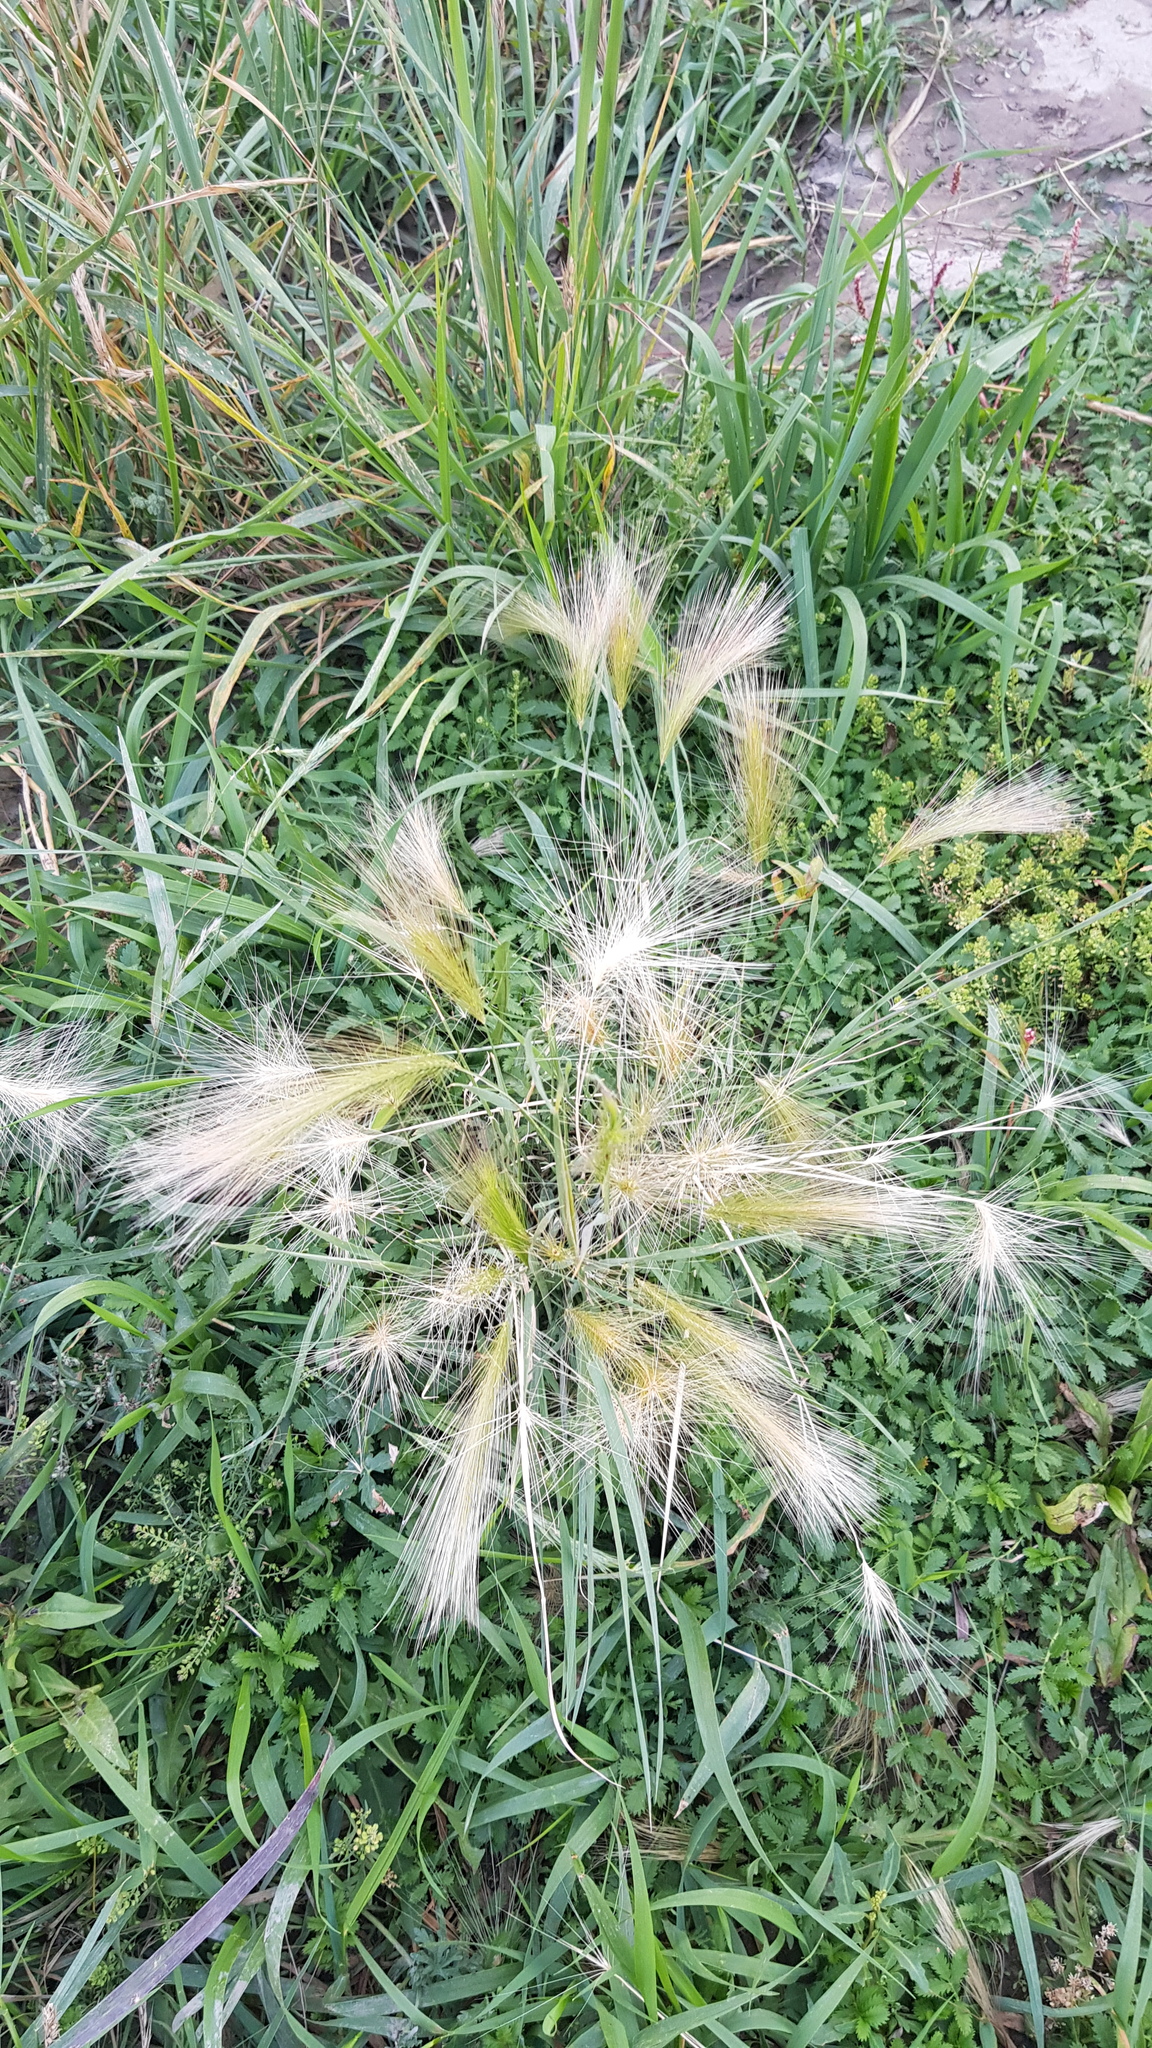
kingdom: Plantae
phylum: Tracheophyta
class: Liliopsida
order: Poales
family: Poaceae
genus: Hordeum
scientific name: Hordeum jubatum
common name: Foxtail barley
